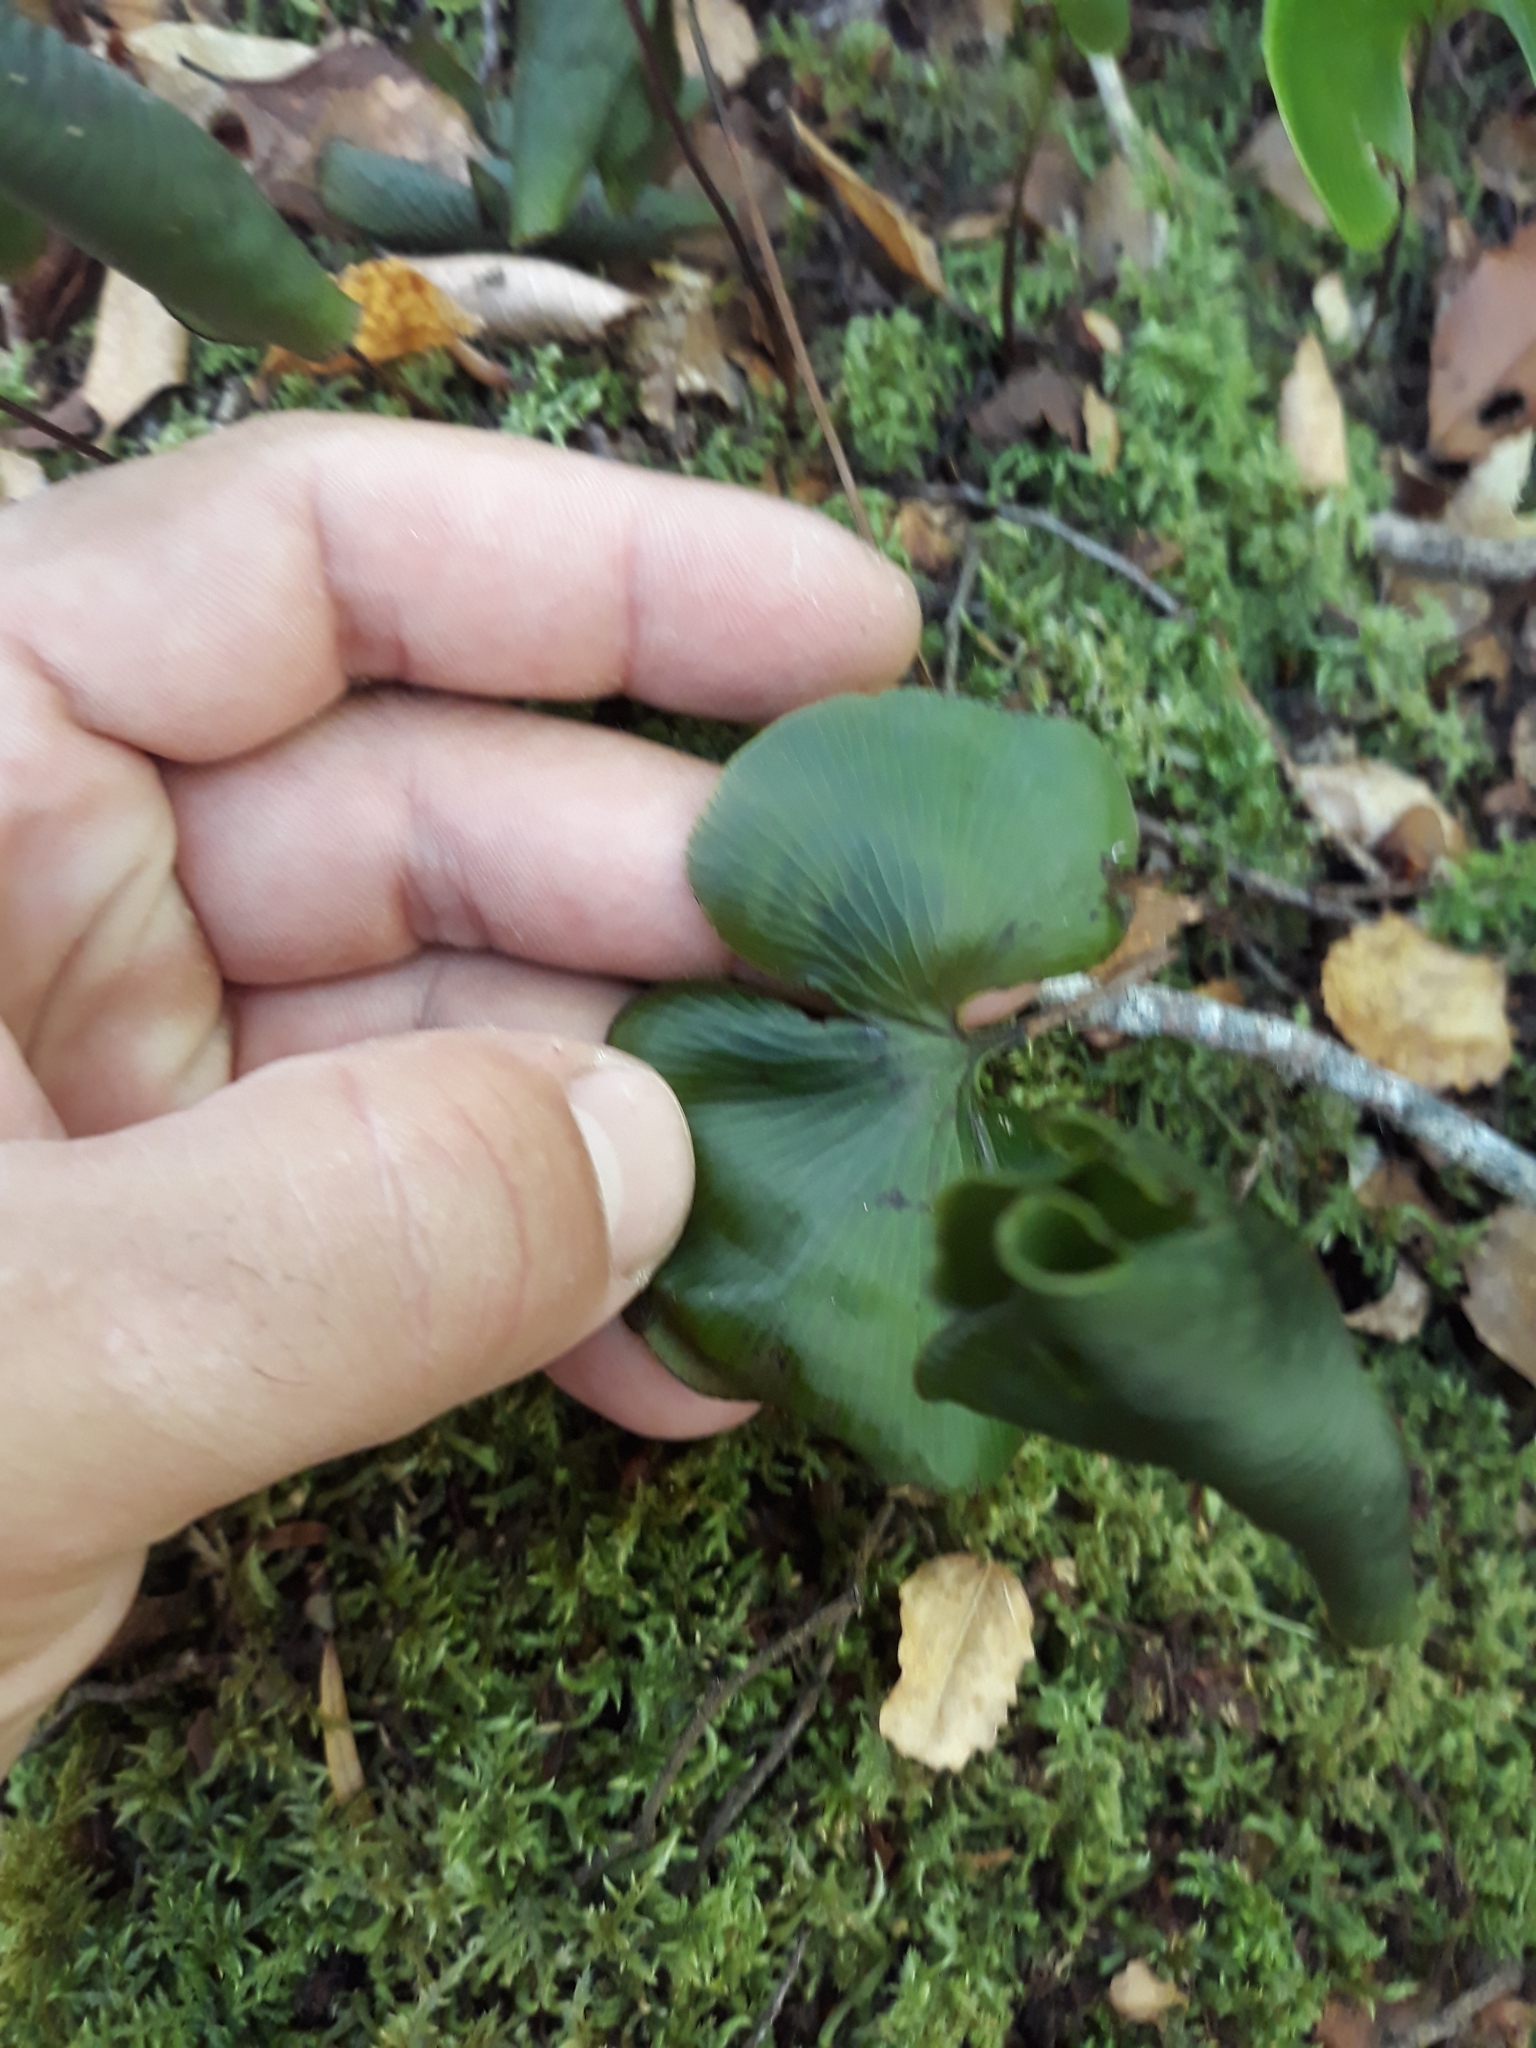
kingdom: Plantae
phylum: Tracheophyta
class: Polypodiopsida
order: Hymenophyllales
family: Hymenophyllaceae
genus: Hymenophyllum
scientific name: Hymenophyllum nephrophyllum
